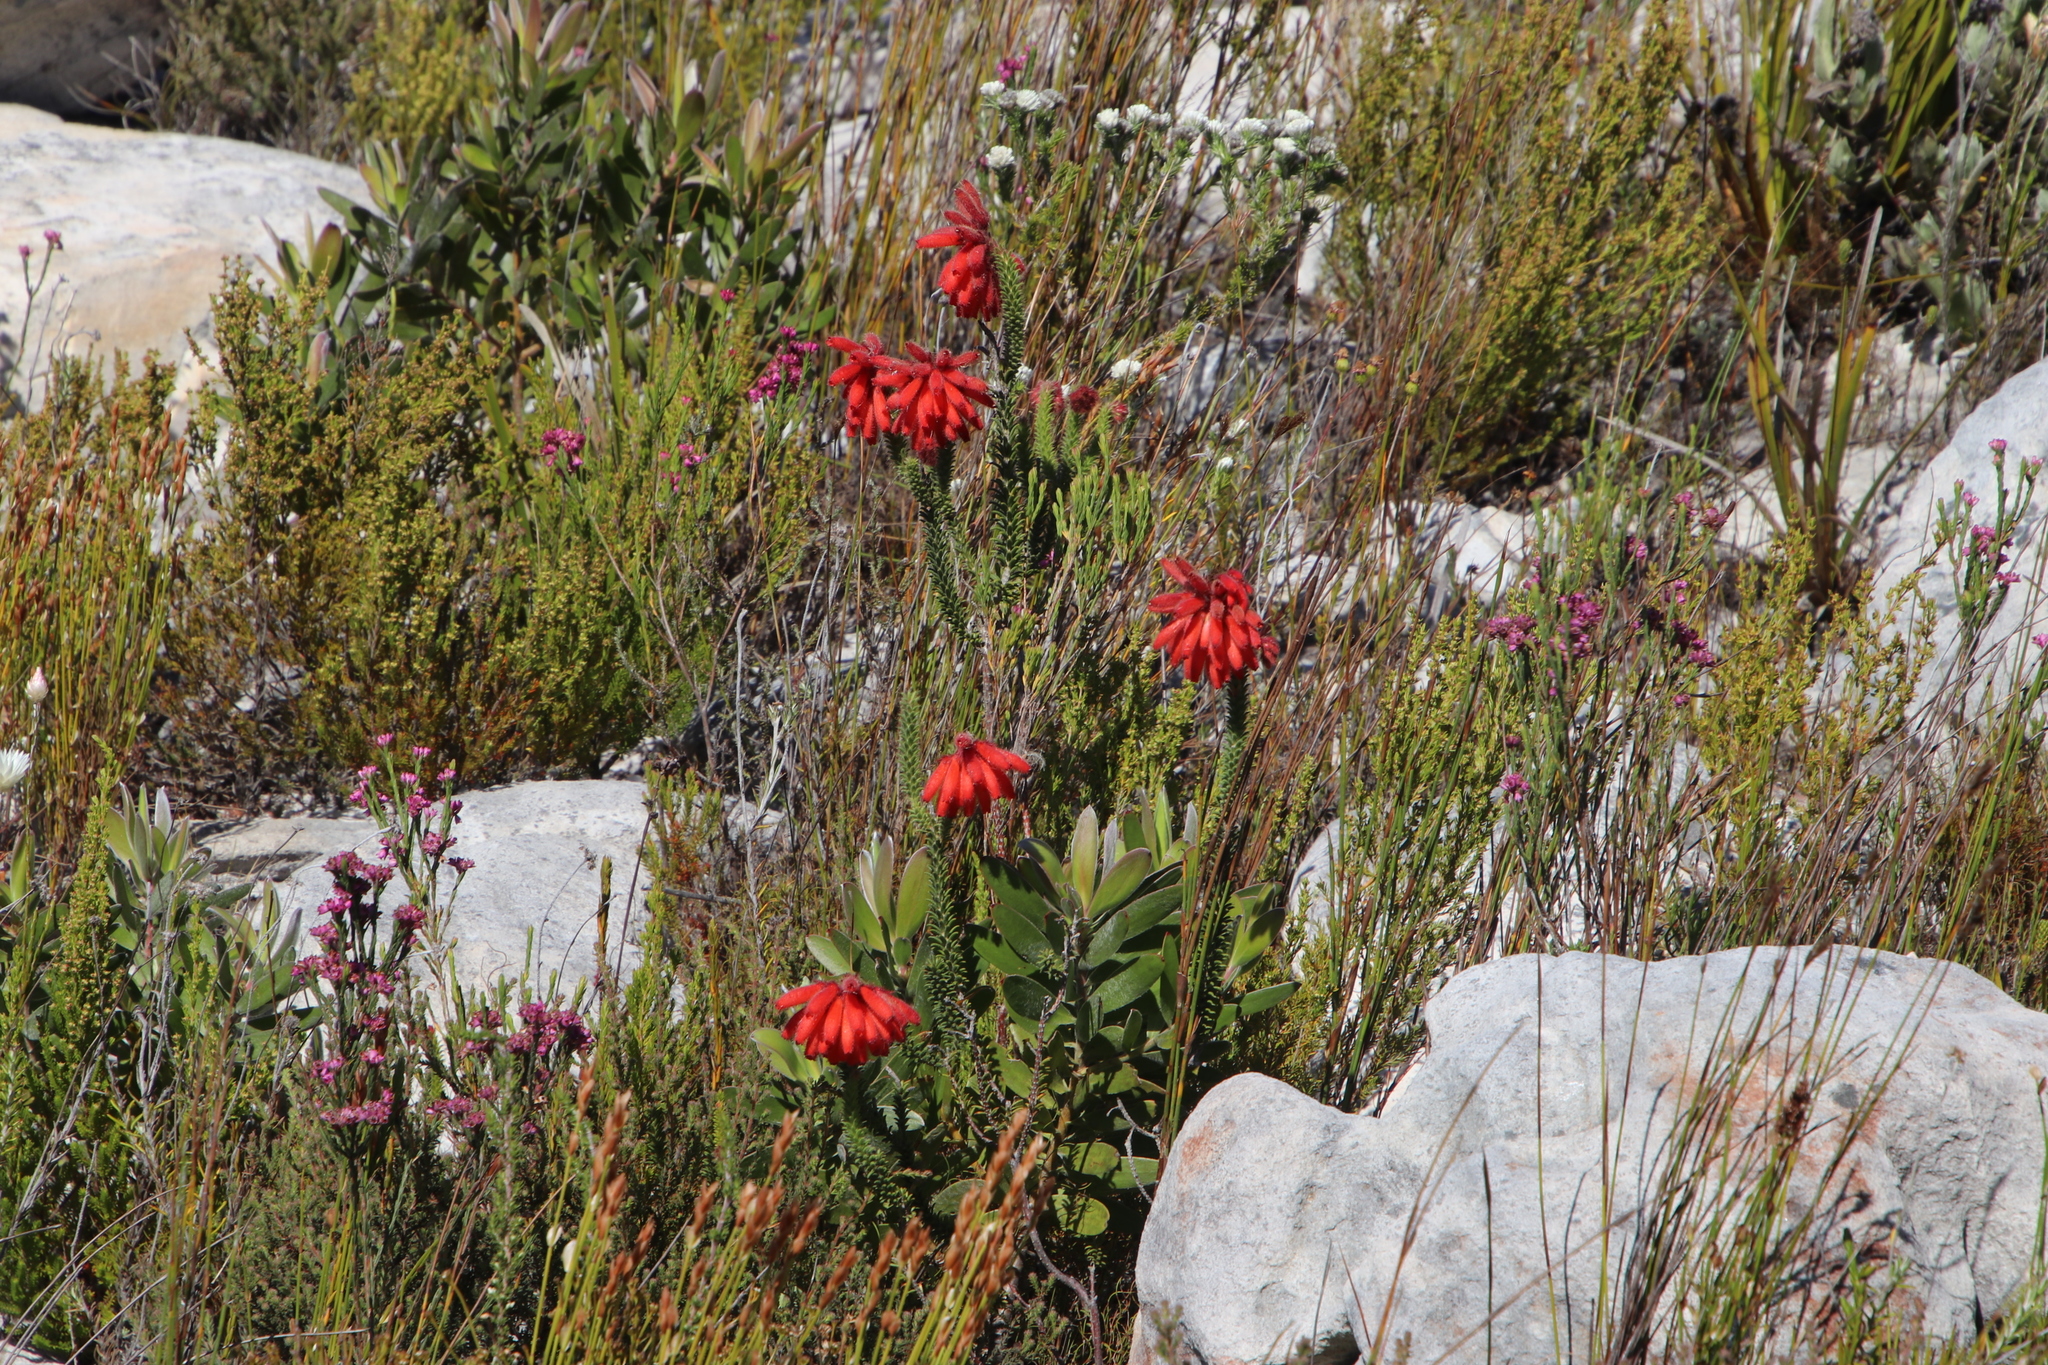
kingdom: Plantae
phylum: Tracheophyta
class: Magnoliopsida
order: Ericales
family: Ericaceae
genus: Erica
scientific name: Erica cerinthoides
